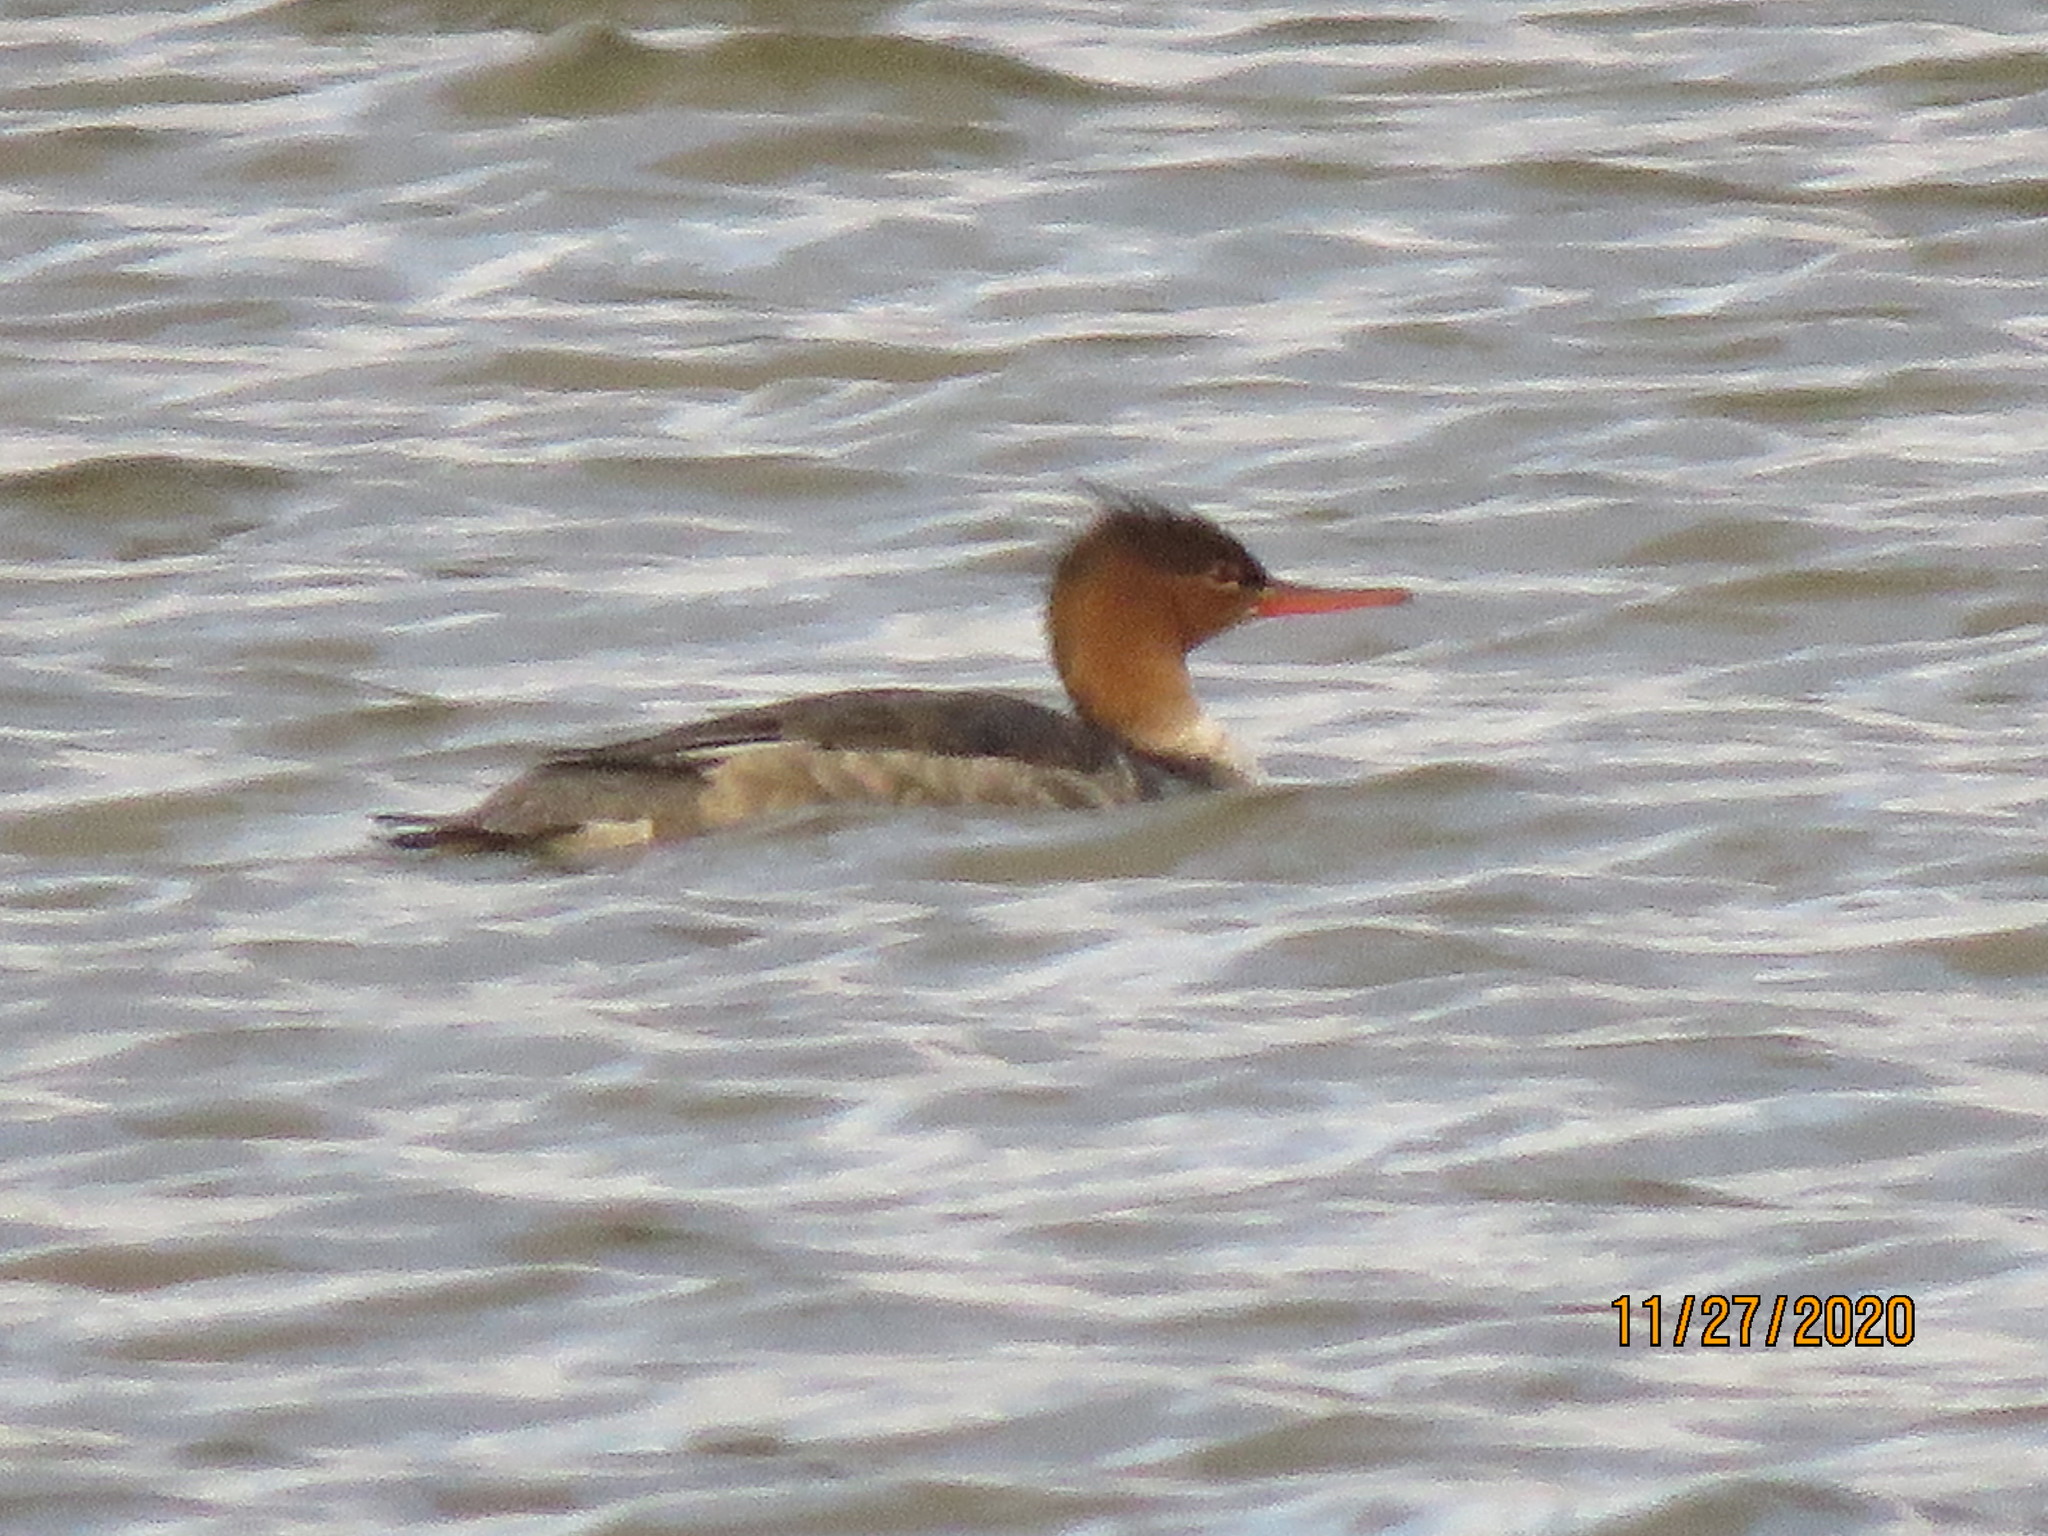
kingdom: Animalia
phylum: Chordata
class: Aves
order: Anseriformes
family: Anatidae
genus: Mergus
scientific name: Mergus serrator
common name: Red-breasted merganser
